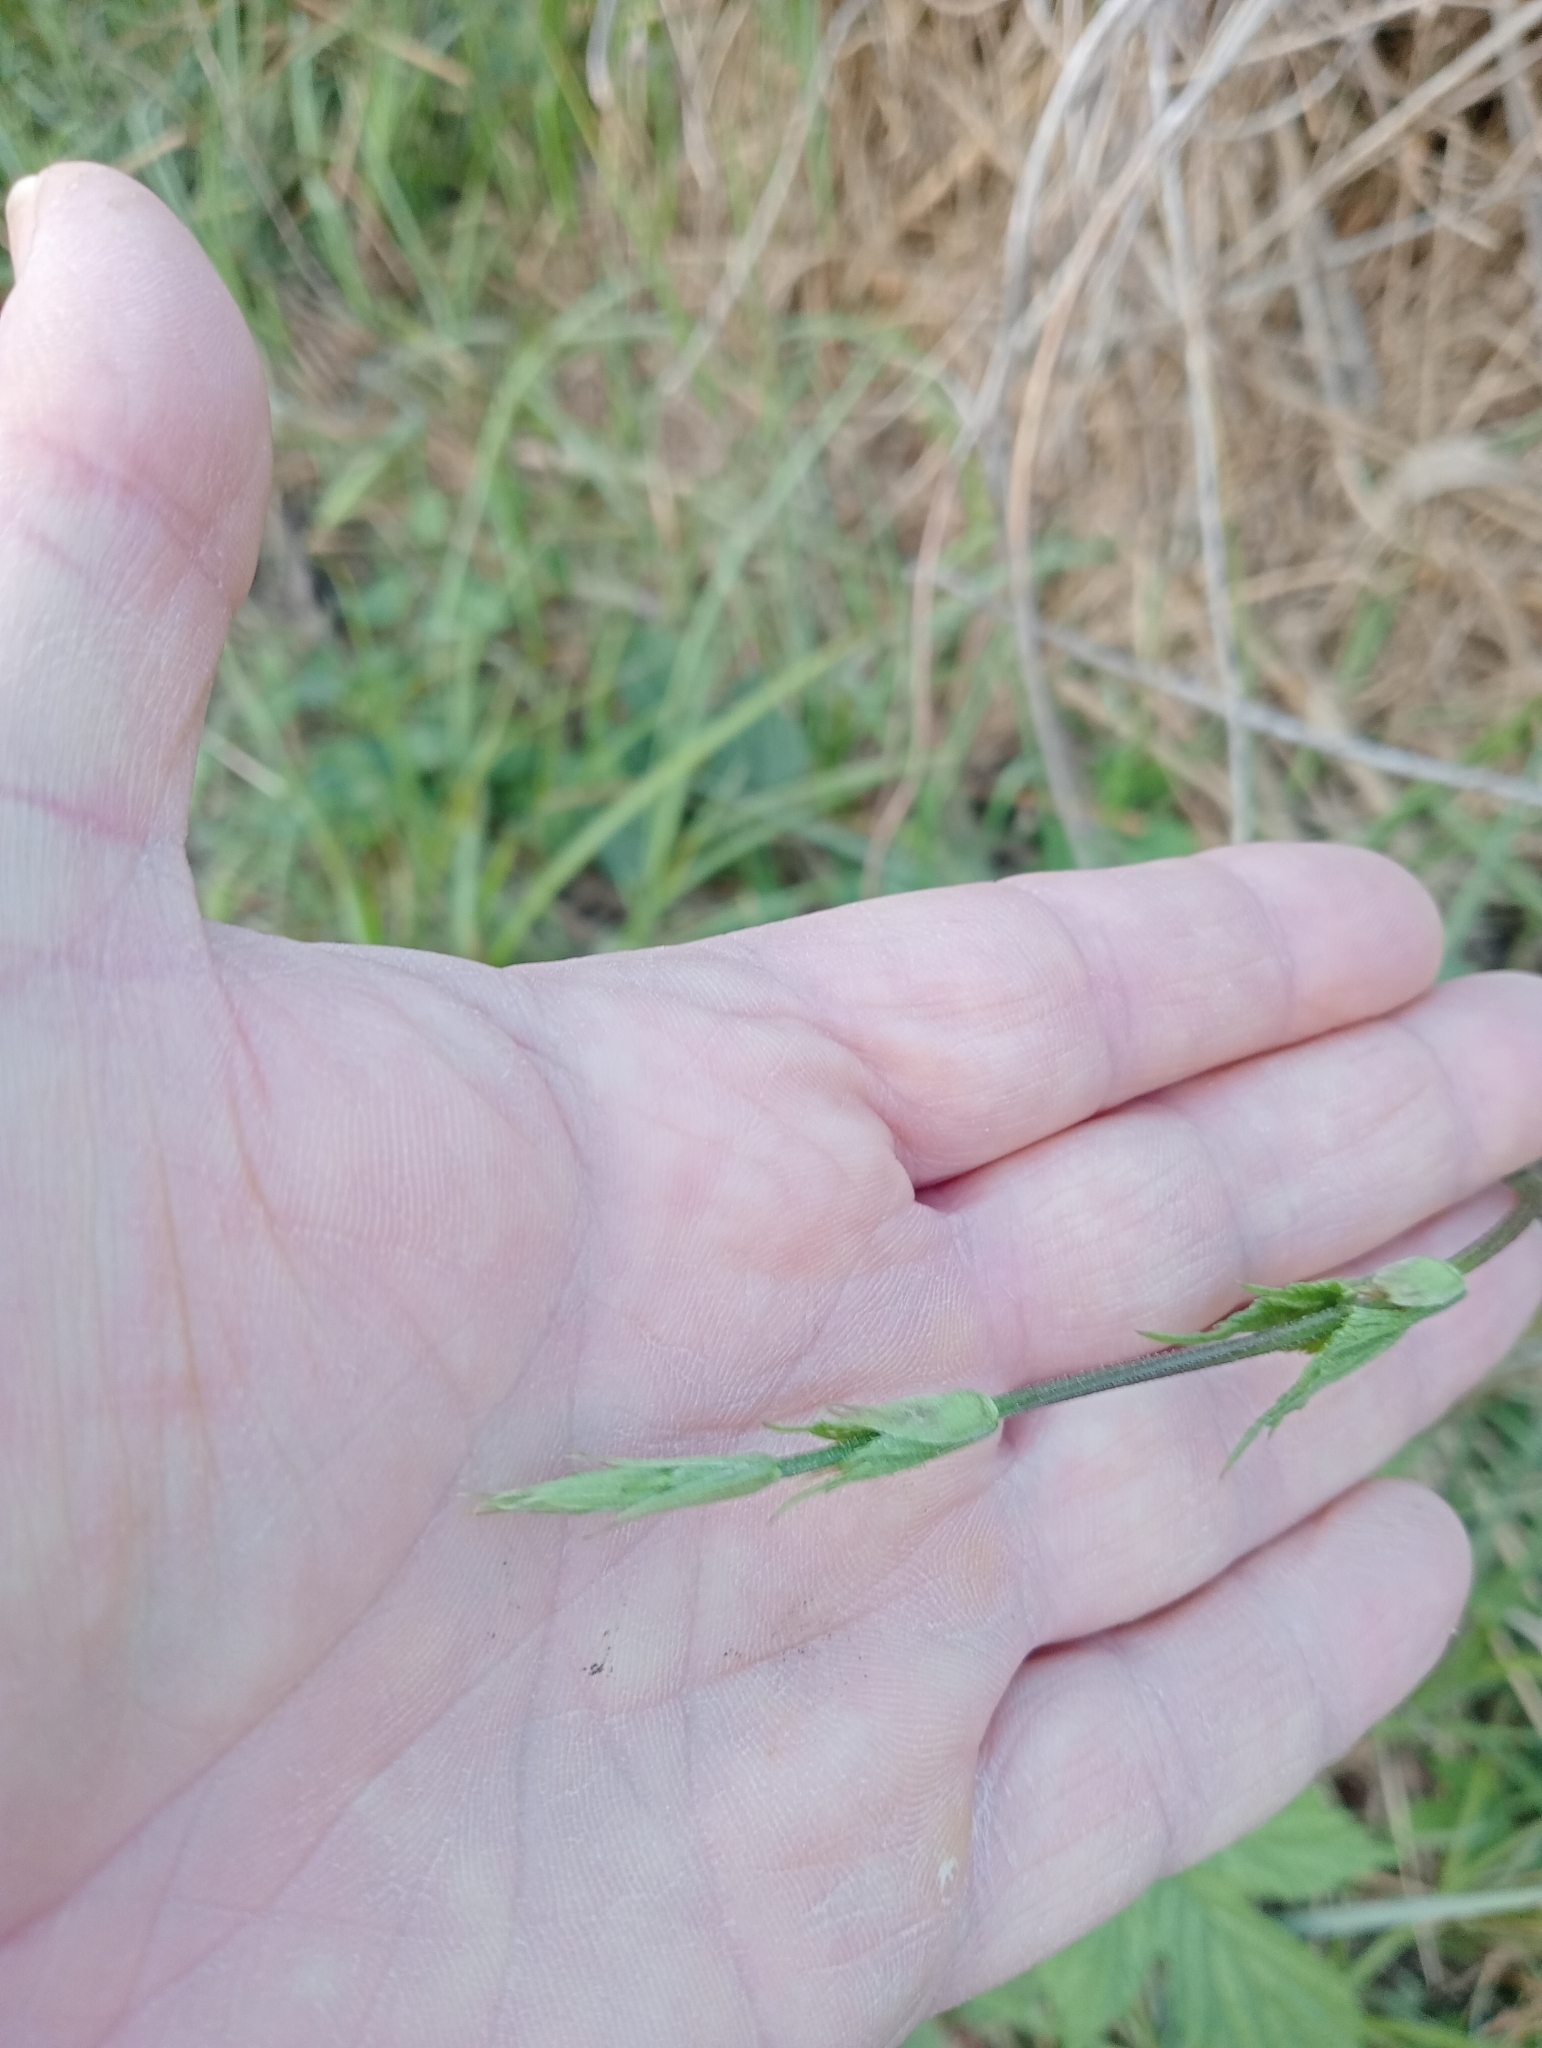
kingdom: Plantae
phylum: Tracheophyta
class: Magnoliopsida
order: Rosales
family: Cannabaceae
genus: Humulus
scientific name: Humulus lupulus
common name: Hop
